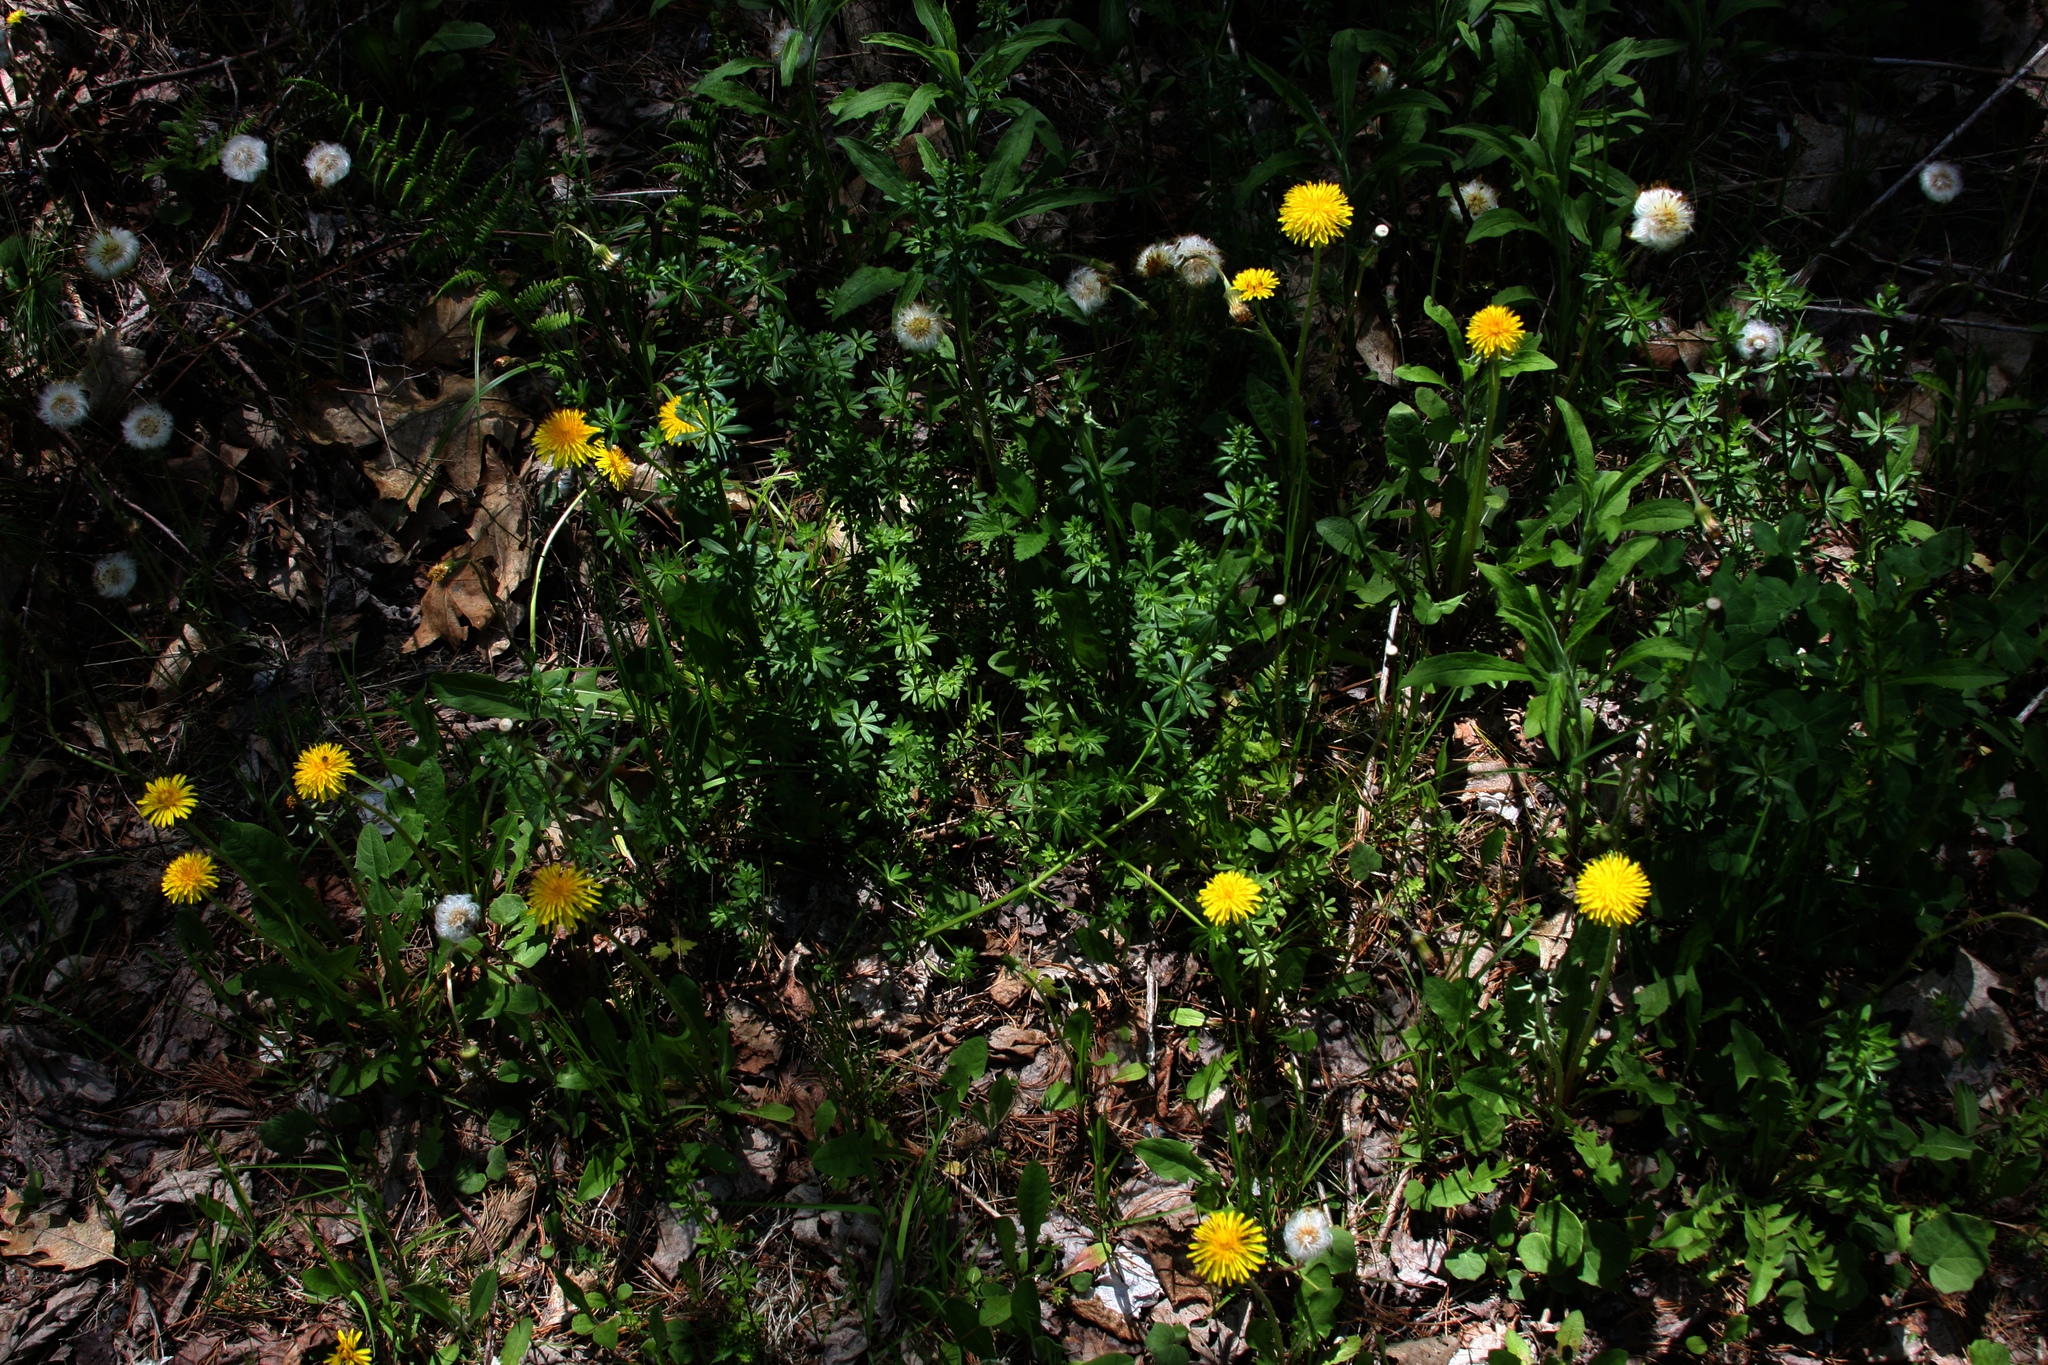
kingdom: Plantae
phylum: Tracheophyta
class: Magnoliopsida
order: Asterales
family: Asteraceae
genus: Tussilago
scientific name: Tussilago farfara
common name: Coltsfoot
